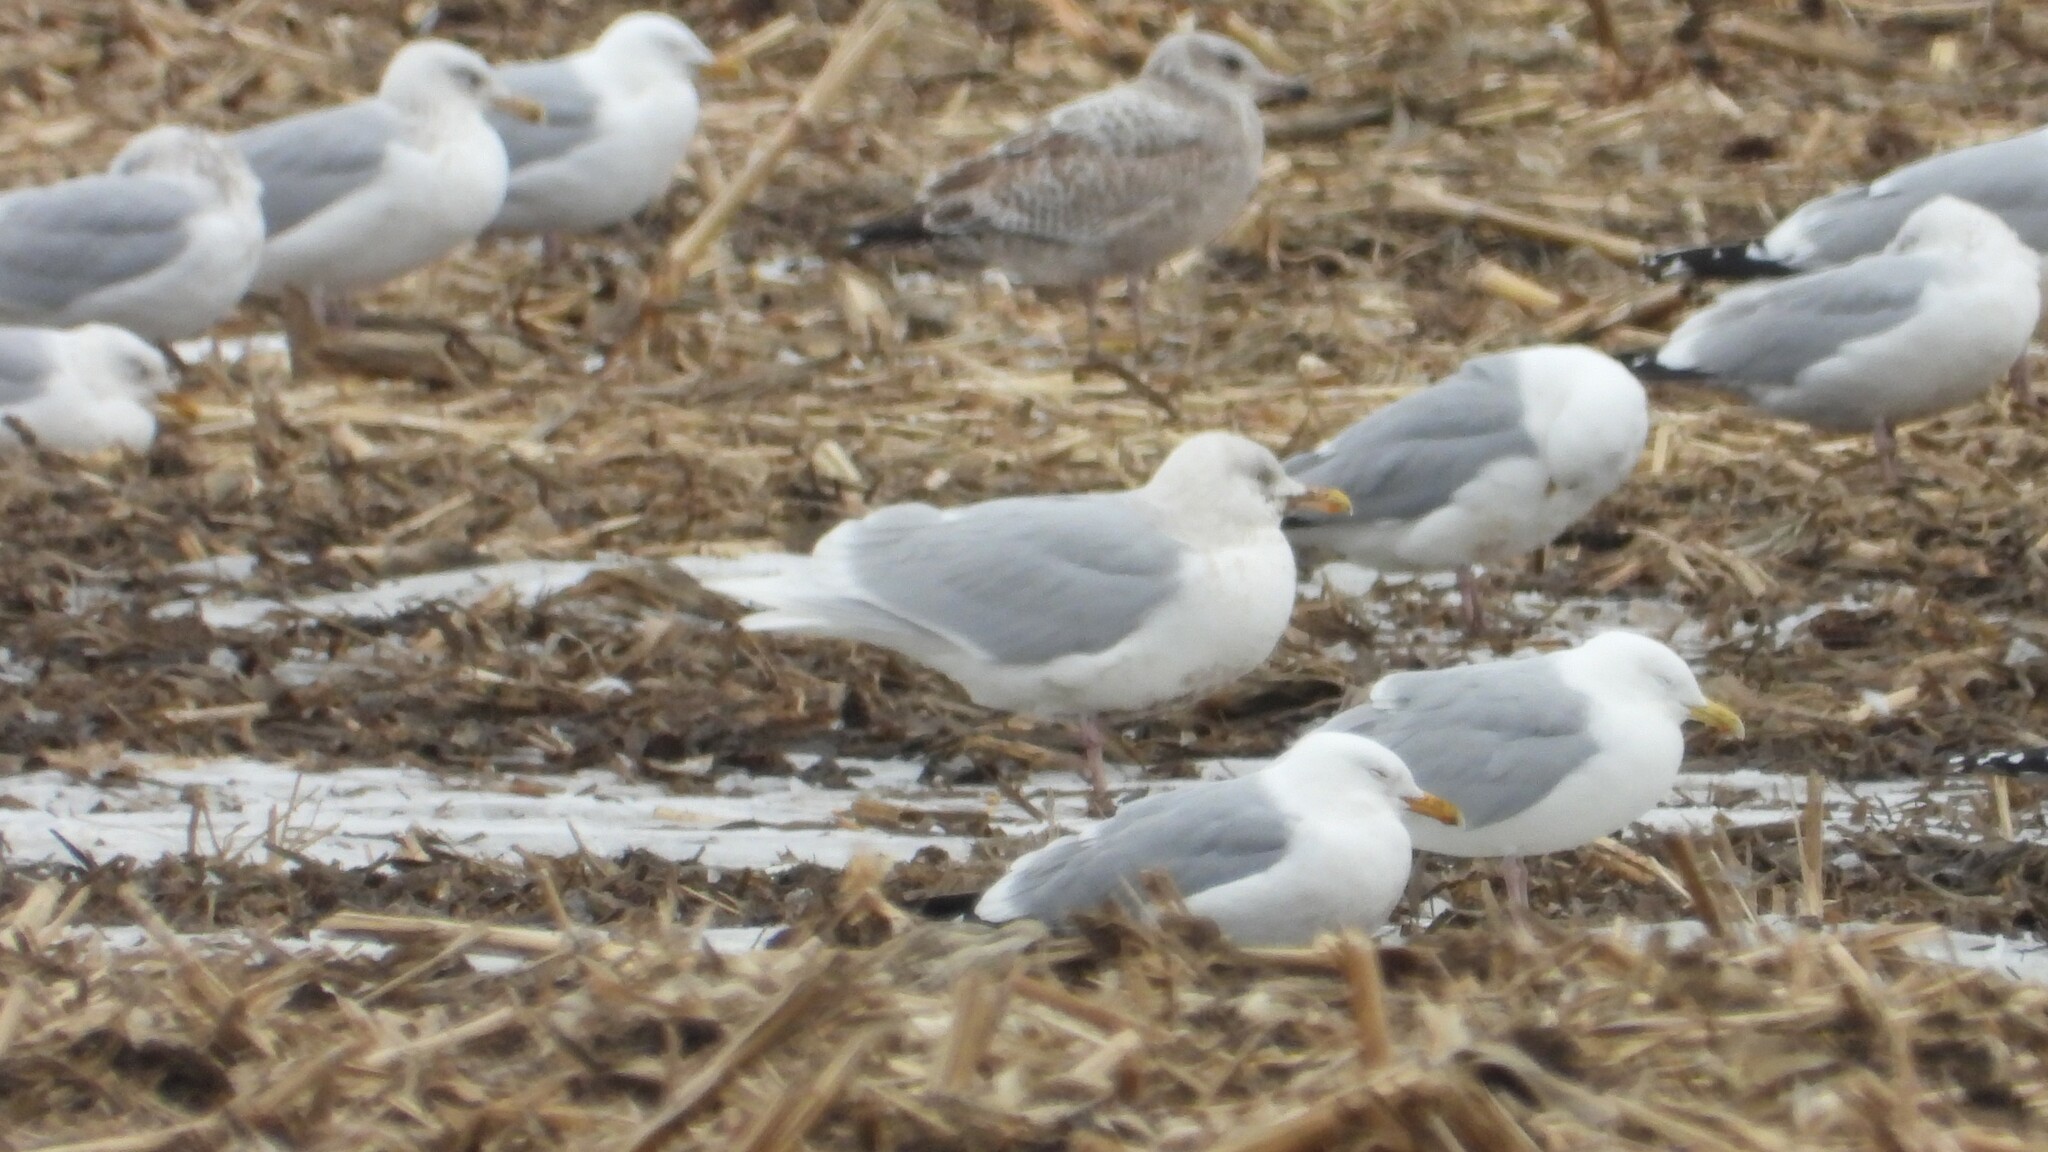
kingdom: Animalia
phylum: Chordata
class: Aves
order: Charadriiformes
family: Laridae
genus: Larus
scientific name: Larus hyperboreus
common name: Glaucous gull
